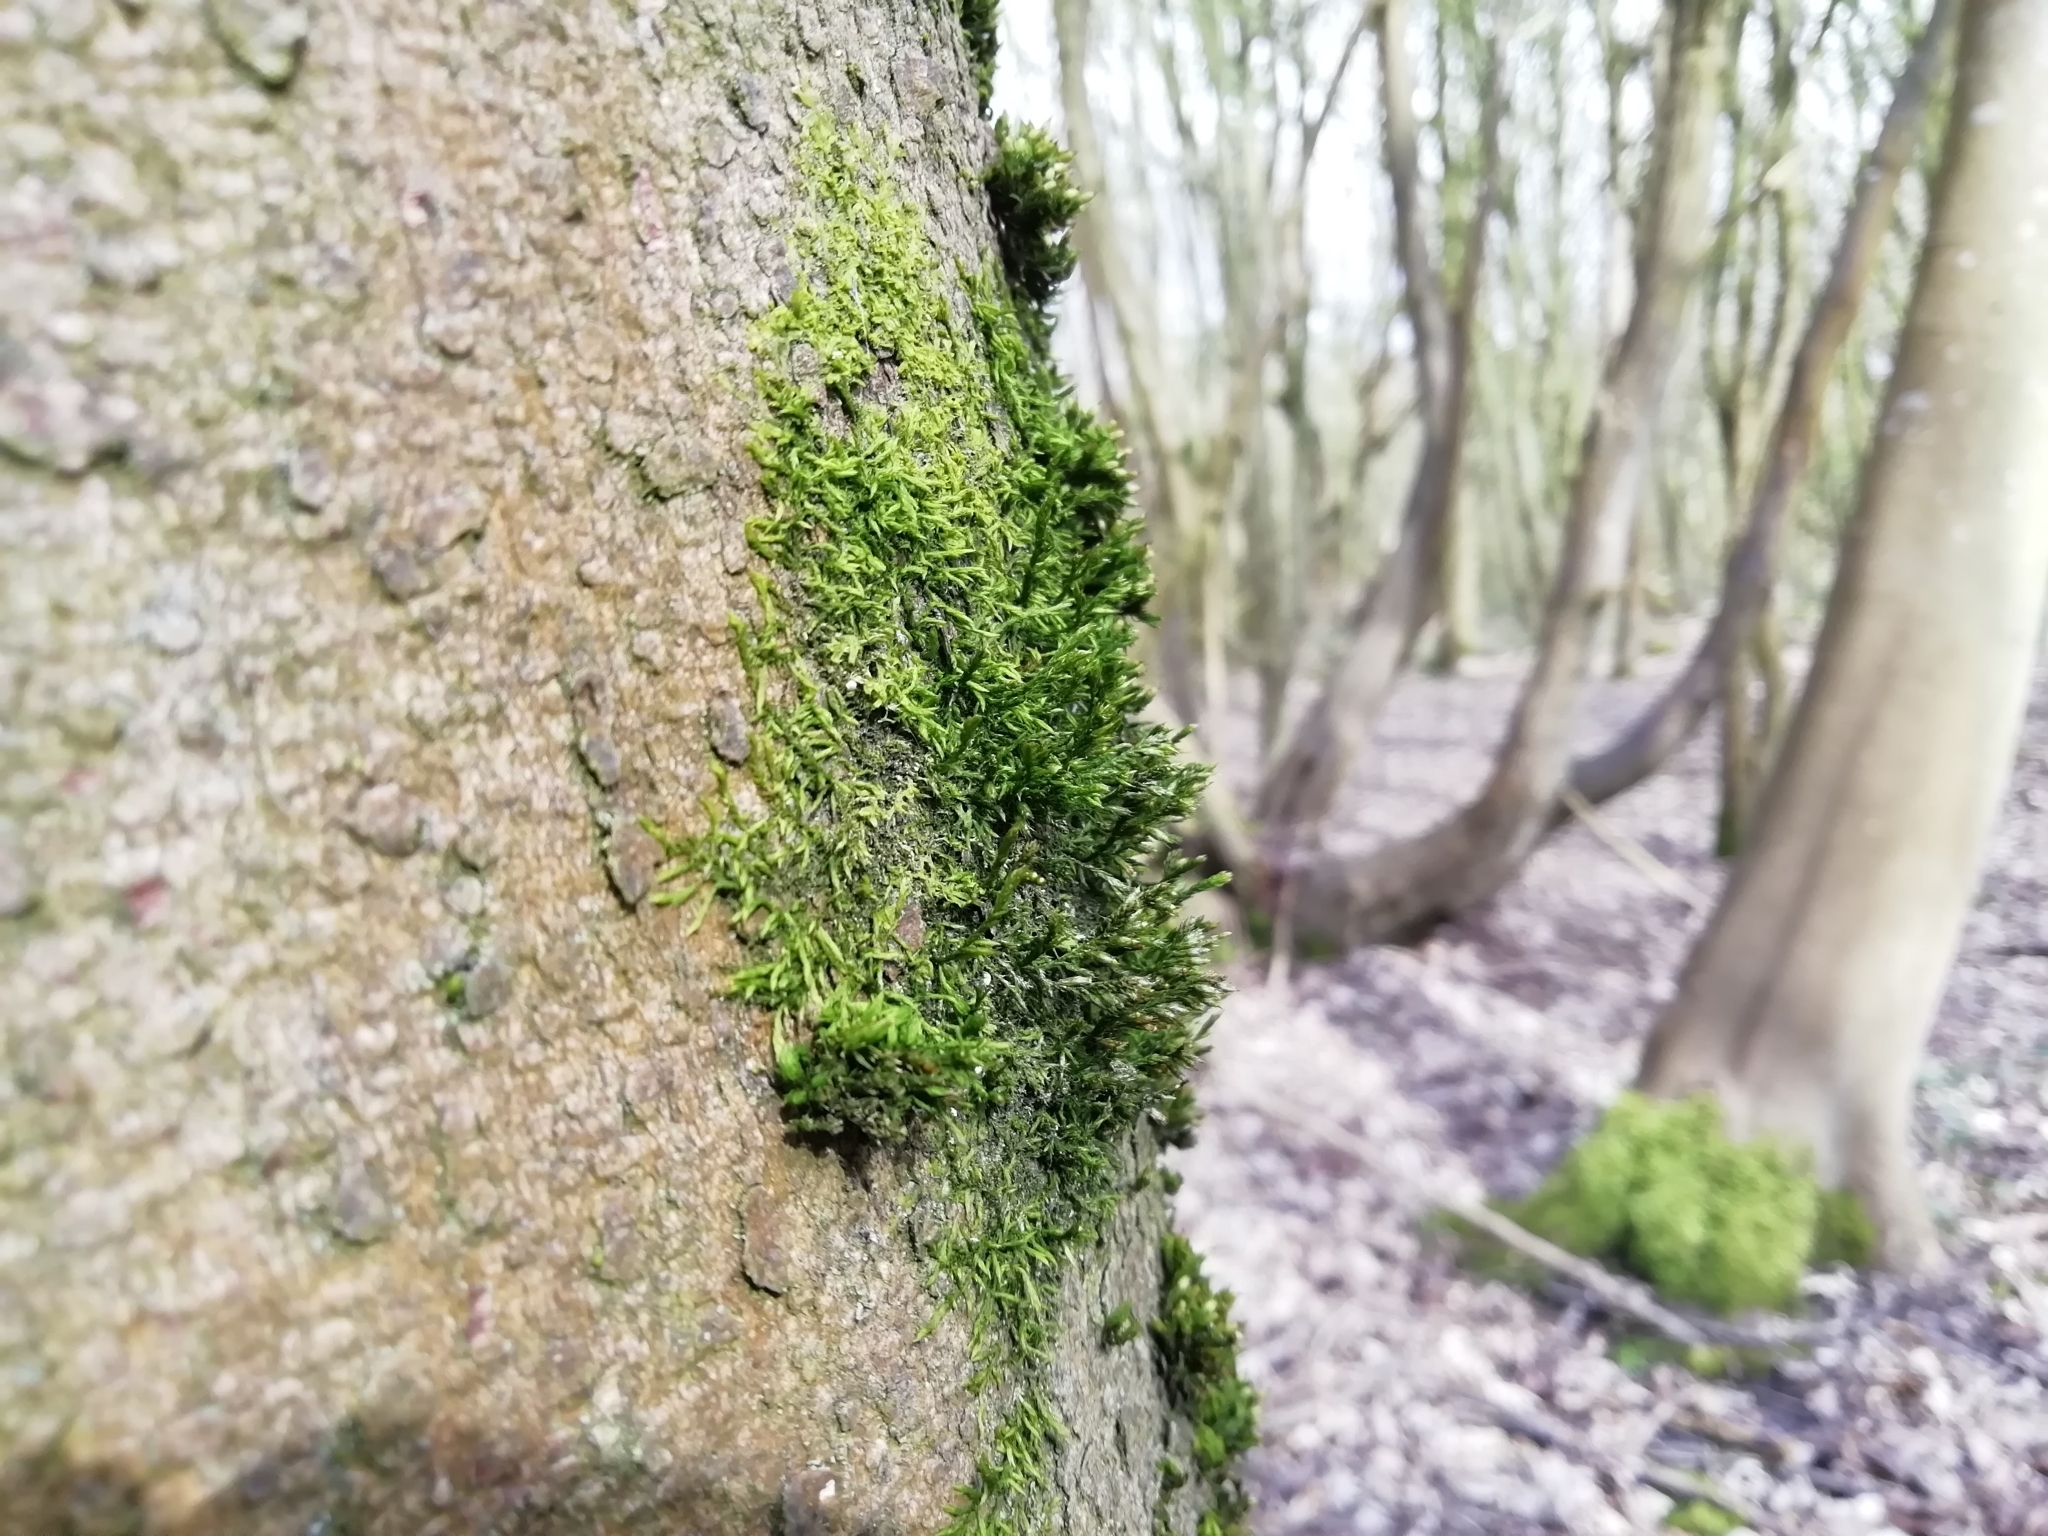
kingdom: Plantae
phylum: Bryophyta
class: Bryopsida
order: Hypnales
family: Cryphaeaceae
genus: Cryphaea
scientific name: Cryphaea heteromalla
